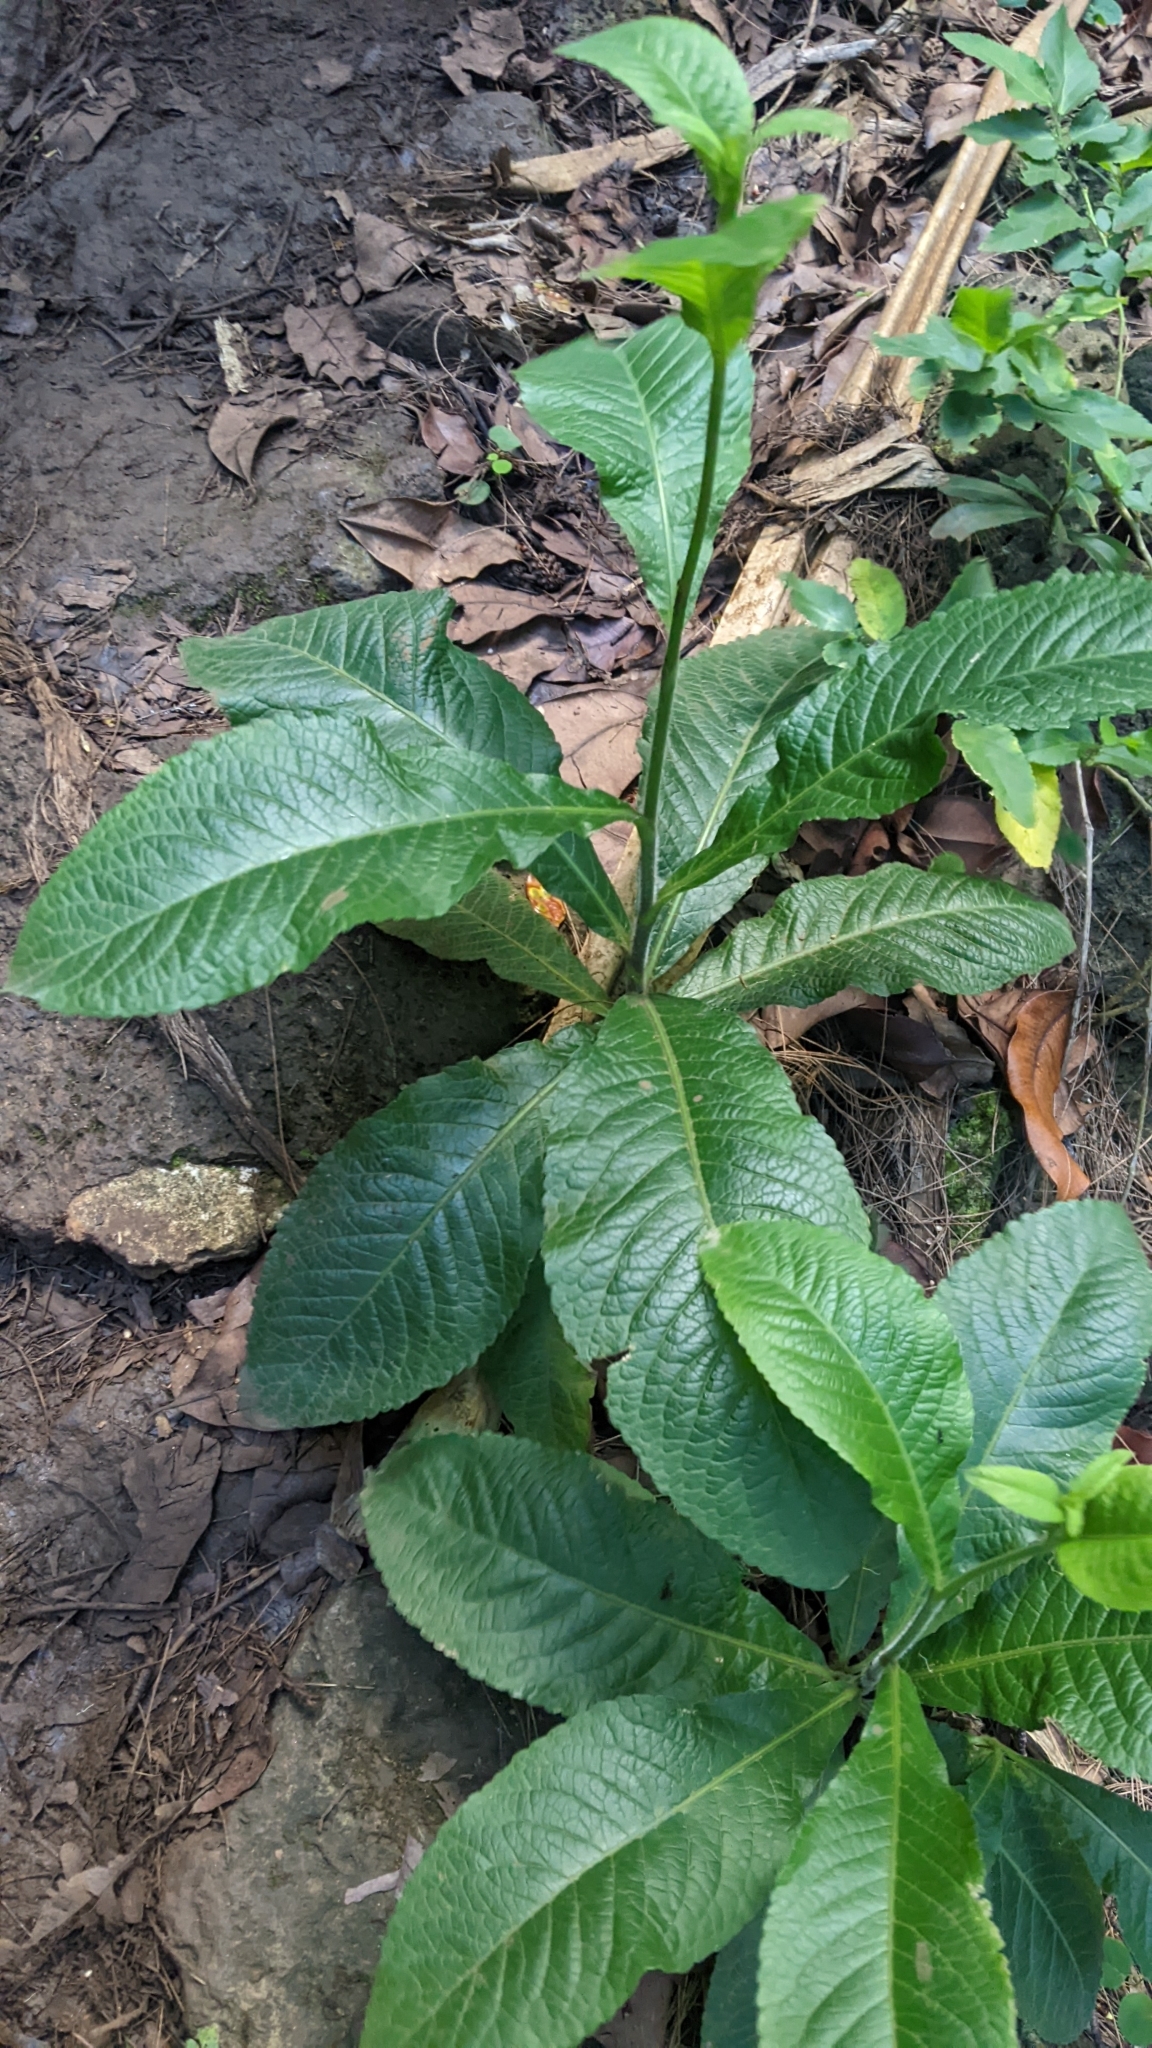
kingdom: Plantae
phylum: Tracheophyta
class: Magnoliopsida
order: Asterales
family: Asteraceae
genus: Elephantopus
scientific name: Elephantopus mollis
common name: Soft elephantsfoot
